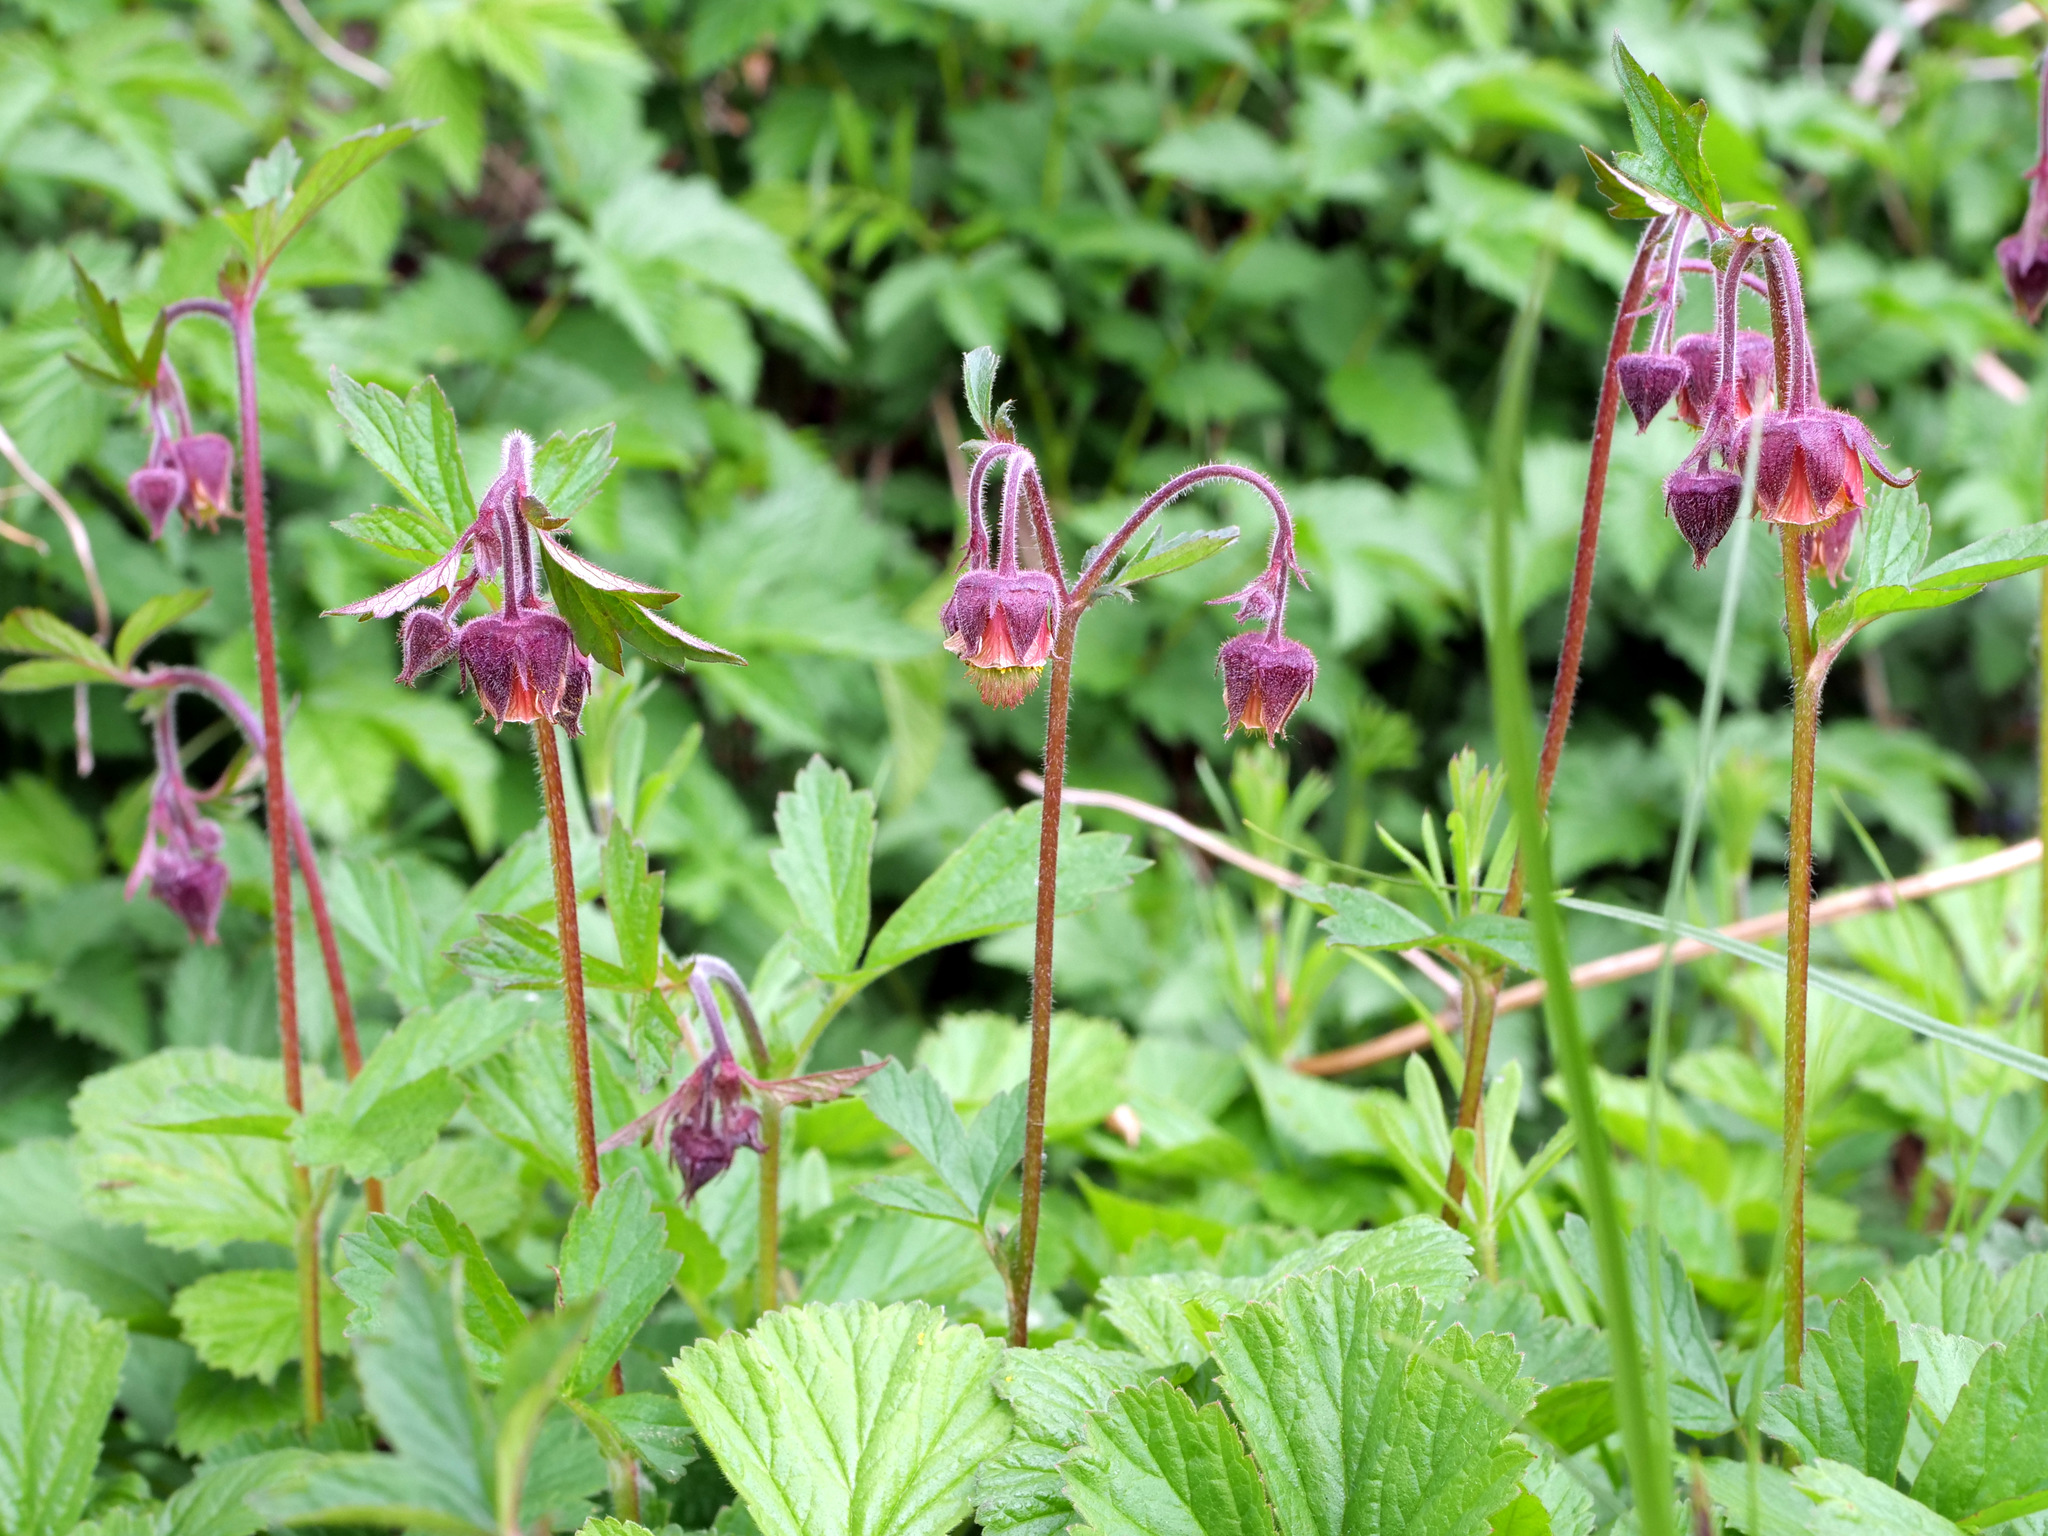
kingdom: Plantae
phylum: Tracheophyta
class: Magnoliopsida
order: Rosales
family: Rosaceae
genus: Geum
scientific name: Geum rivale
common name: Water avens
